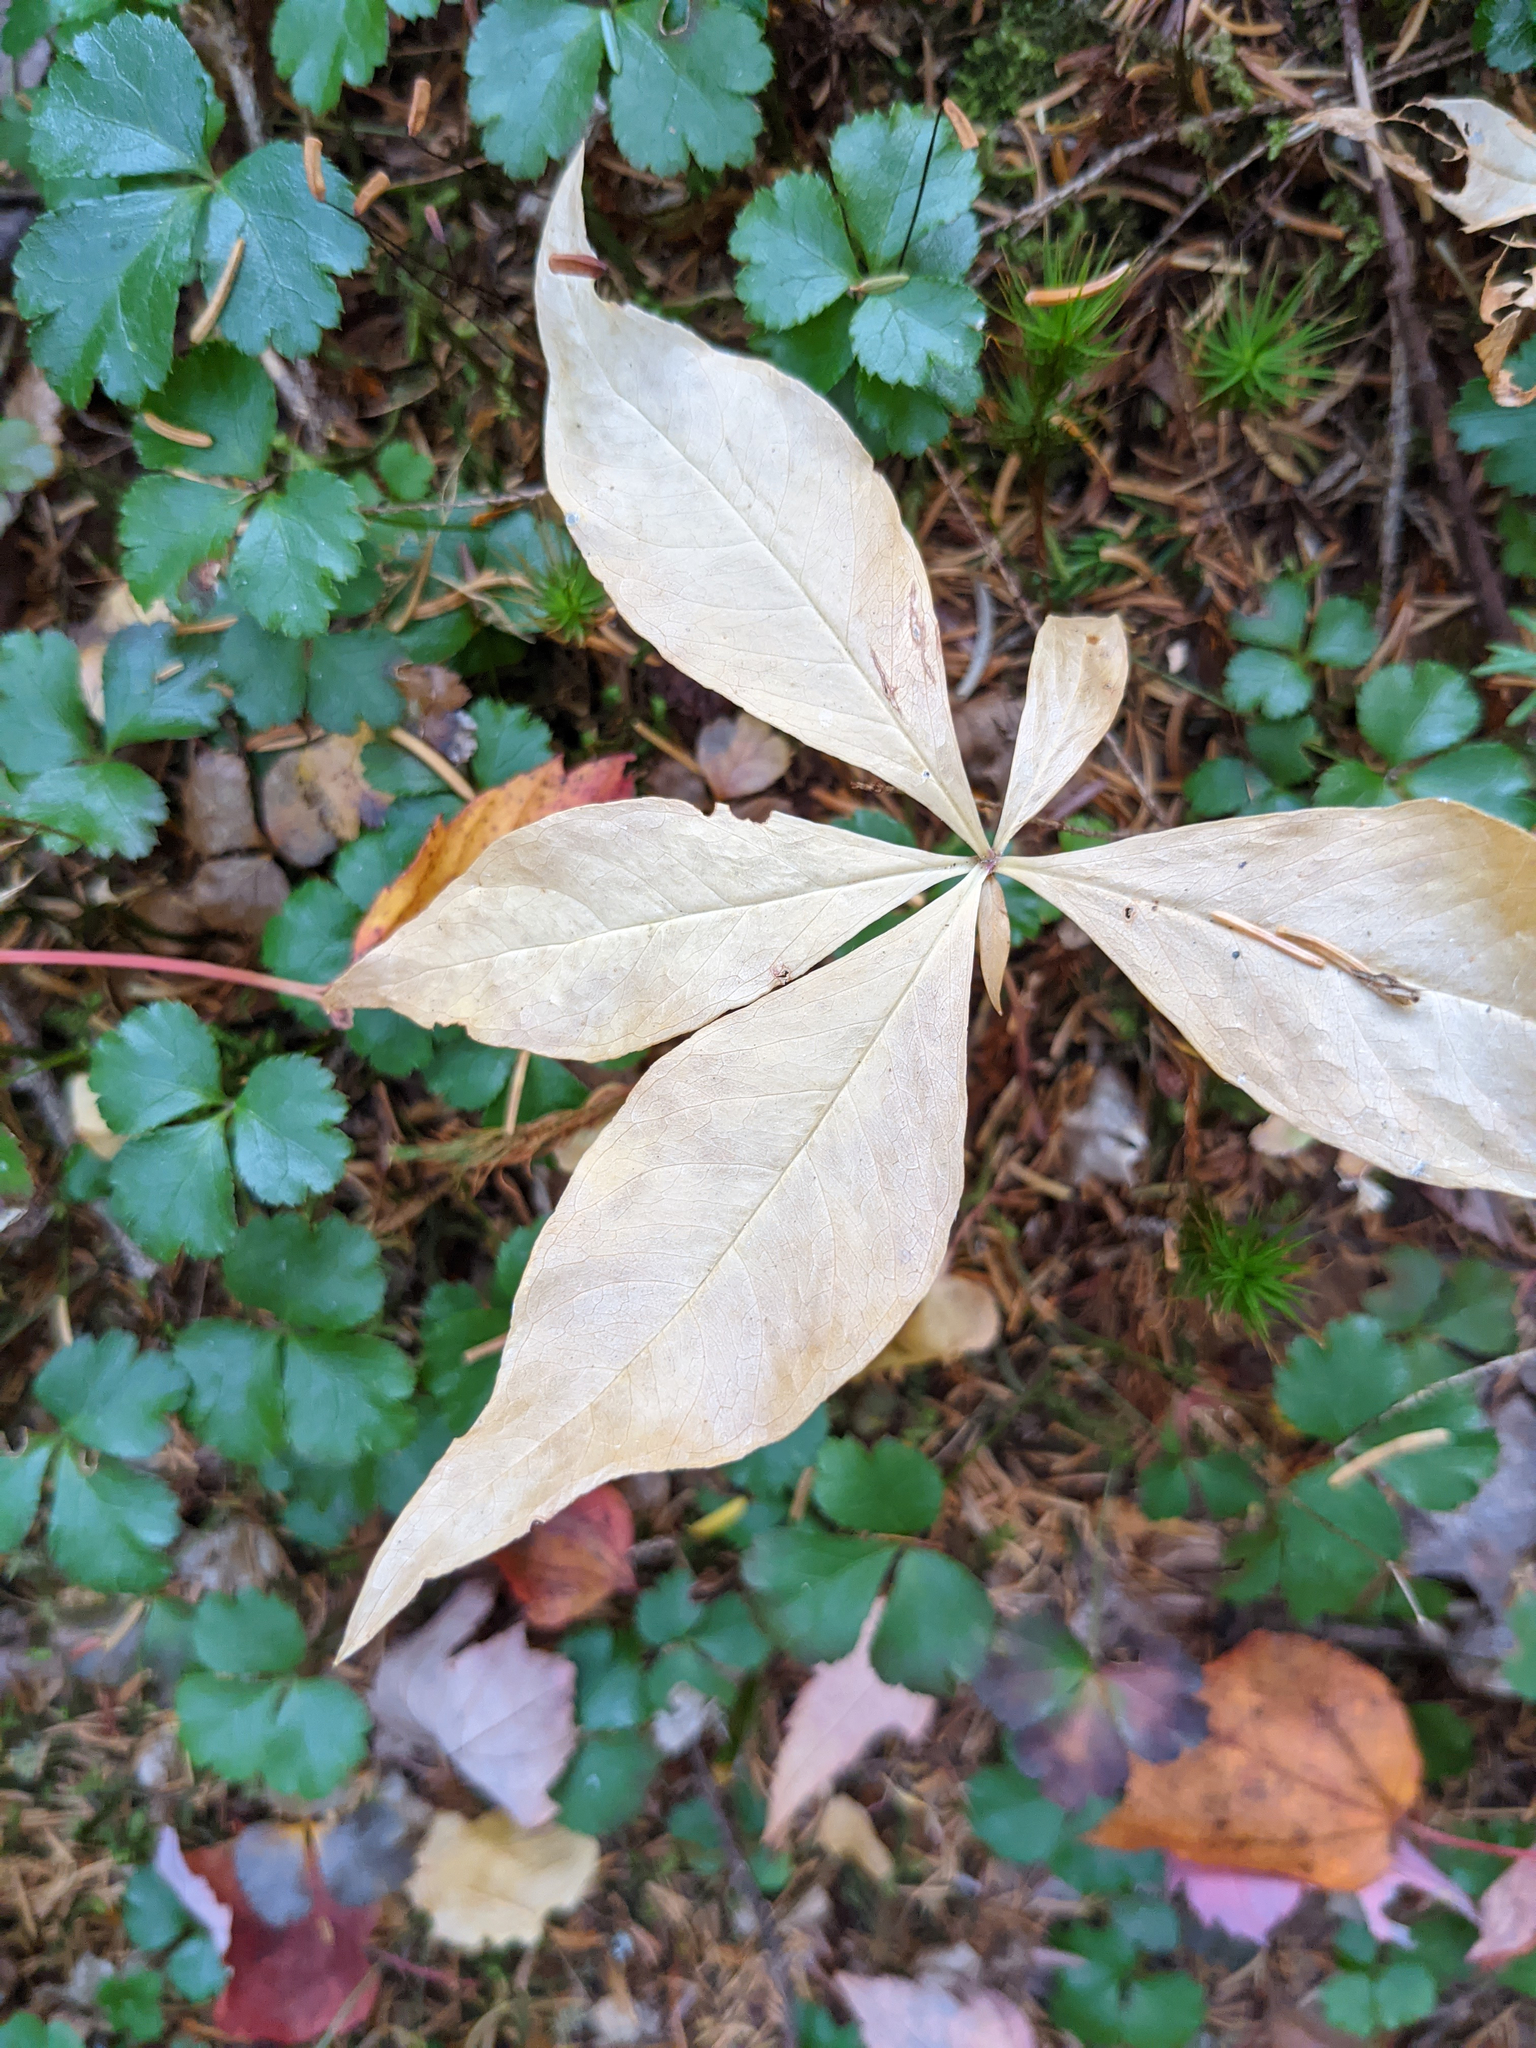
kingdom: Plantae
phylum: Tracheophyta
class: Magnoliopsida
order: Ericales
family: Primulaceae
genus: Lysimachia
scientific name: Lysimachia borealis
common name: American starflower
